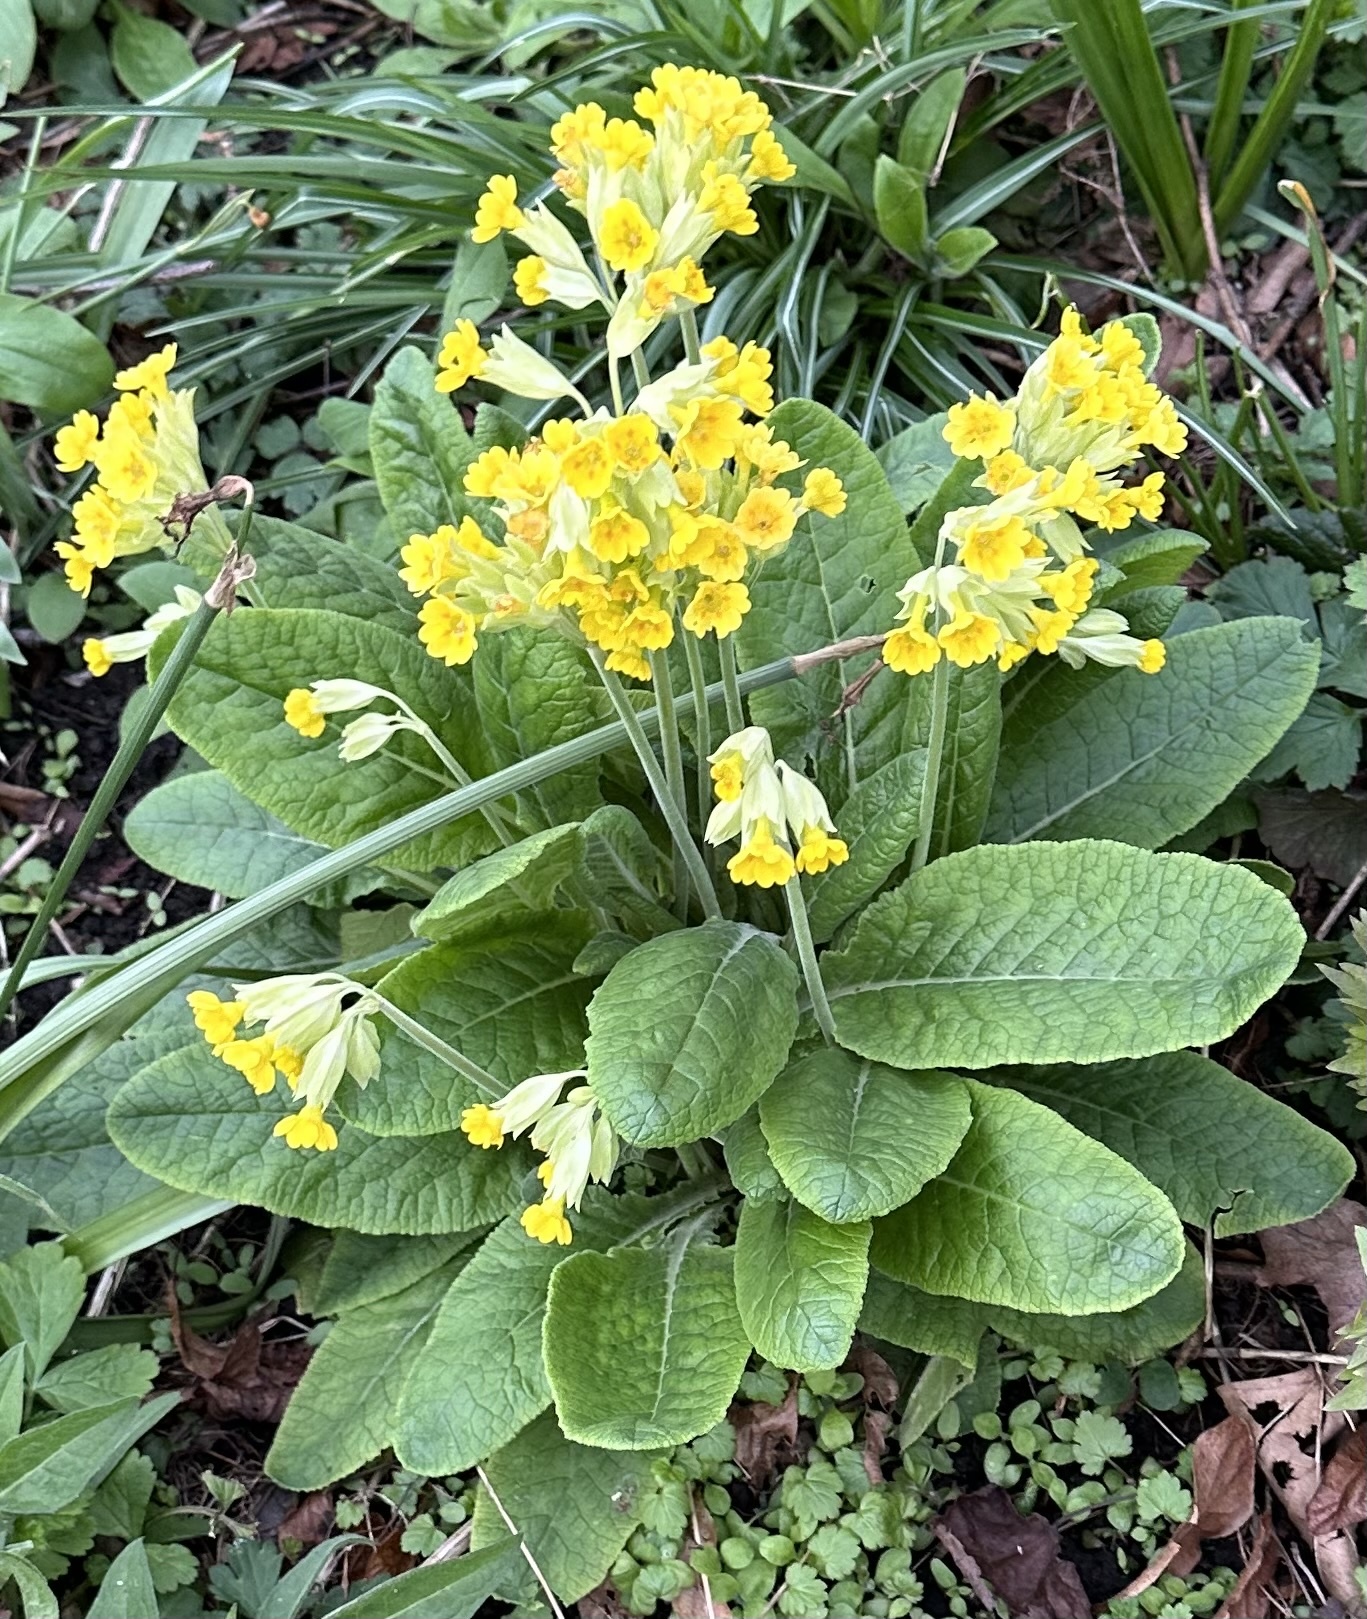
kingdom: Plantae
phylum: Tracheophyta
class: Magnoliopsida
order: Ericales
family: Primulaceae
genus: Primula
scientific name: Primula veris
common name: Cowslip
